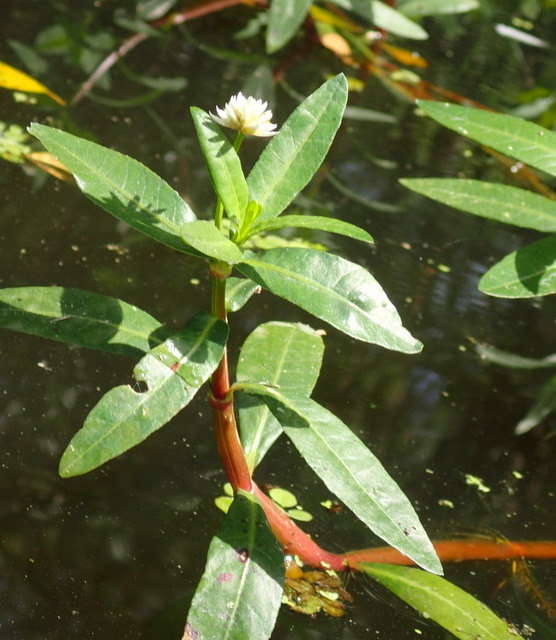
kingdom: Plantae
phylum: Tracheophyta
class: Magnoliopsida
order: Caryophyllales
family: Amaranthaceae
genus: Alternanthera
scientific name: Alternanthera philoxeroides
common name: Alligatorweed
